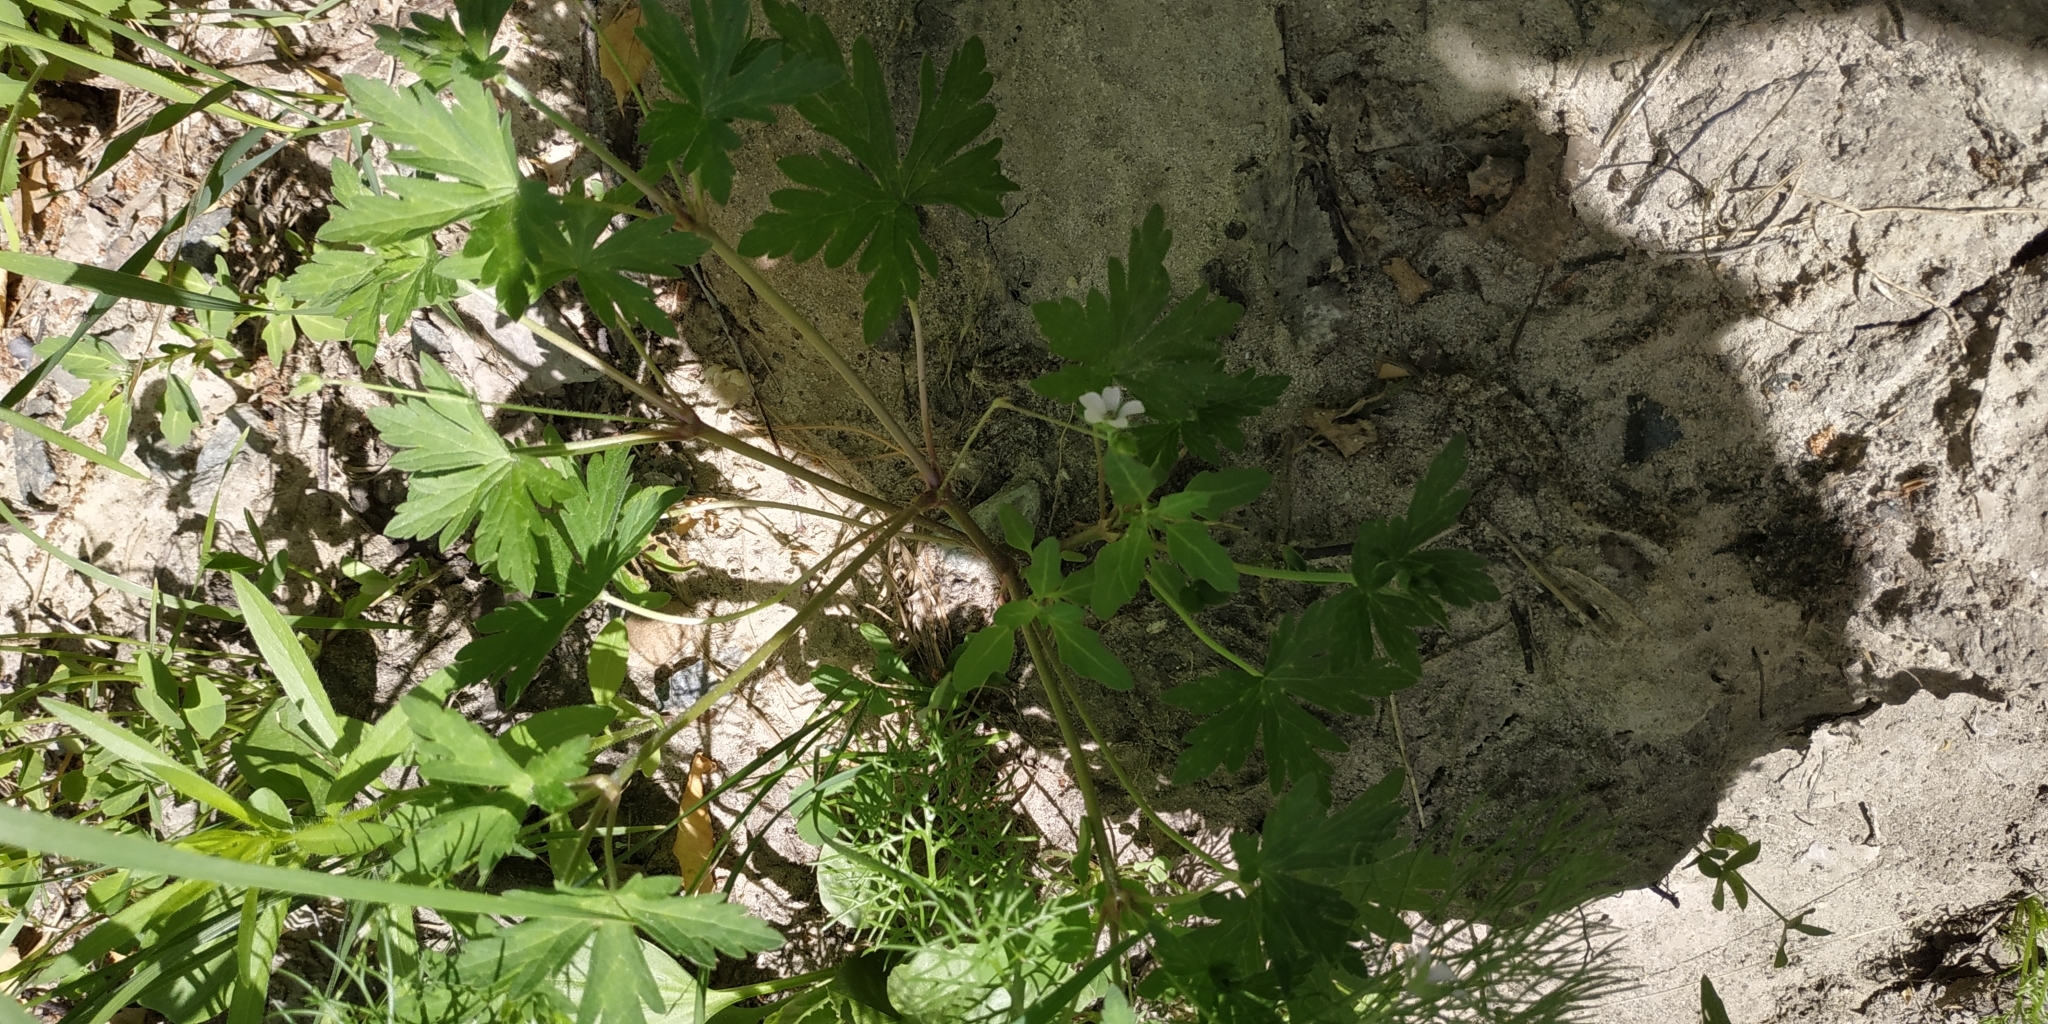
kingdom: Plantae
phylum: Tracheophyta
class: Magnoliopsida
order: Geraniales
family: Geraniaceae
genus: Geranium
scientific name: Geranium sibiricum
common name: Siberian crane's-bill
